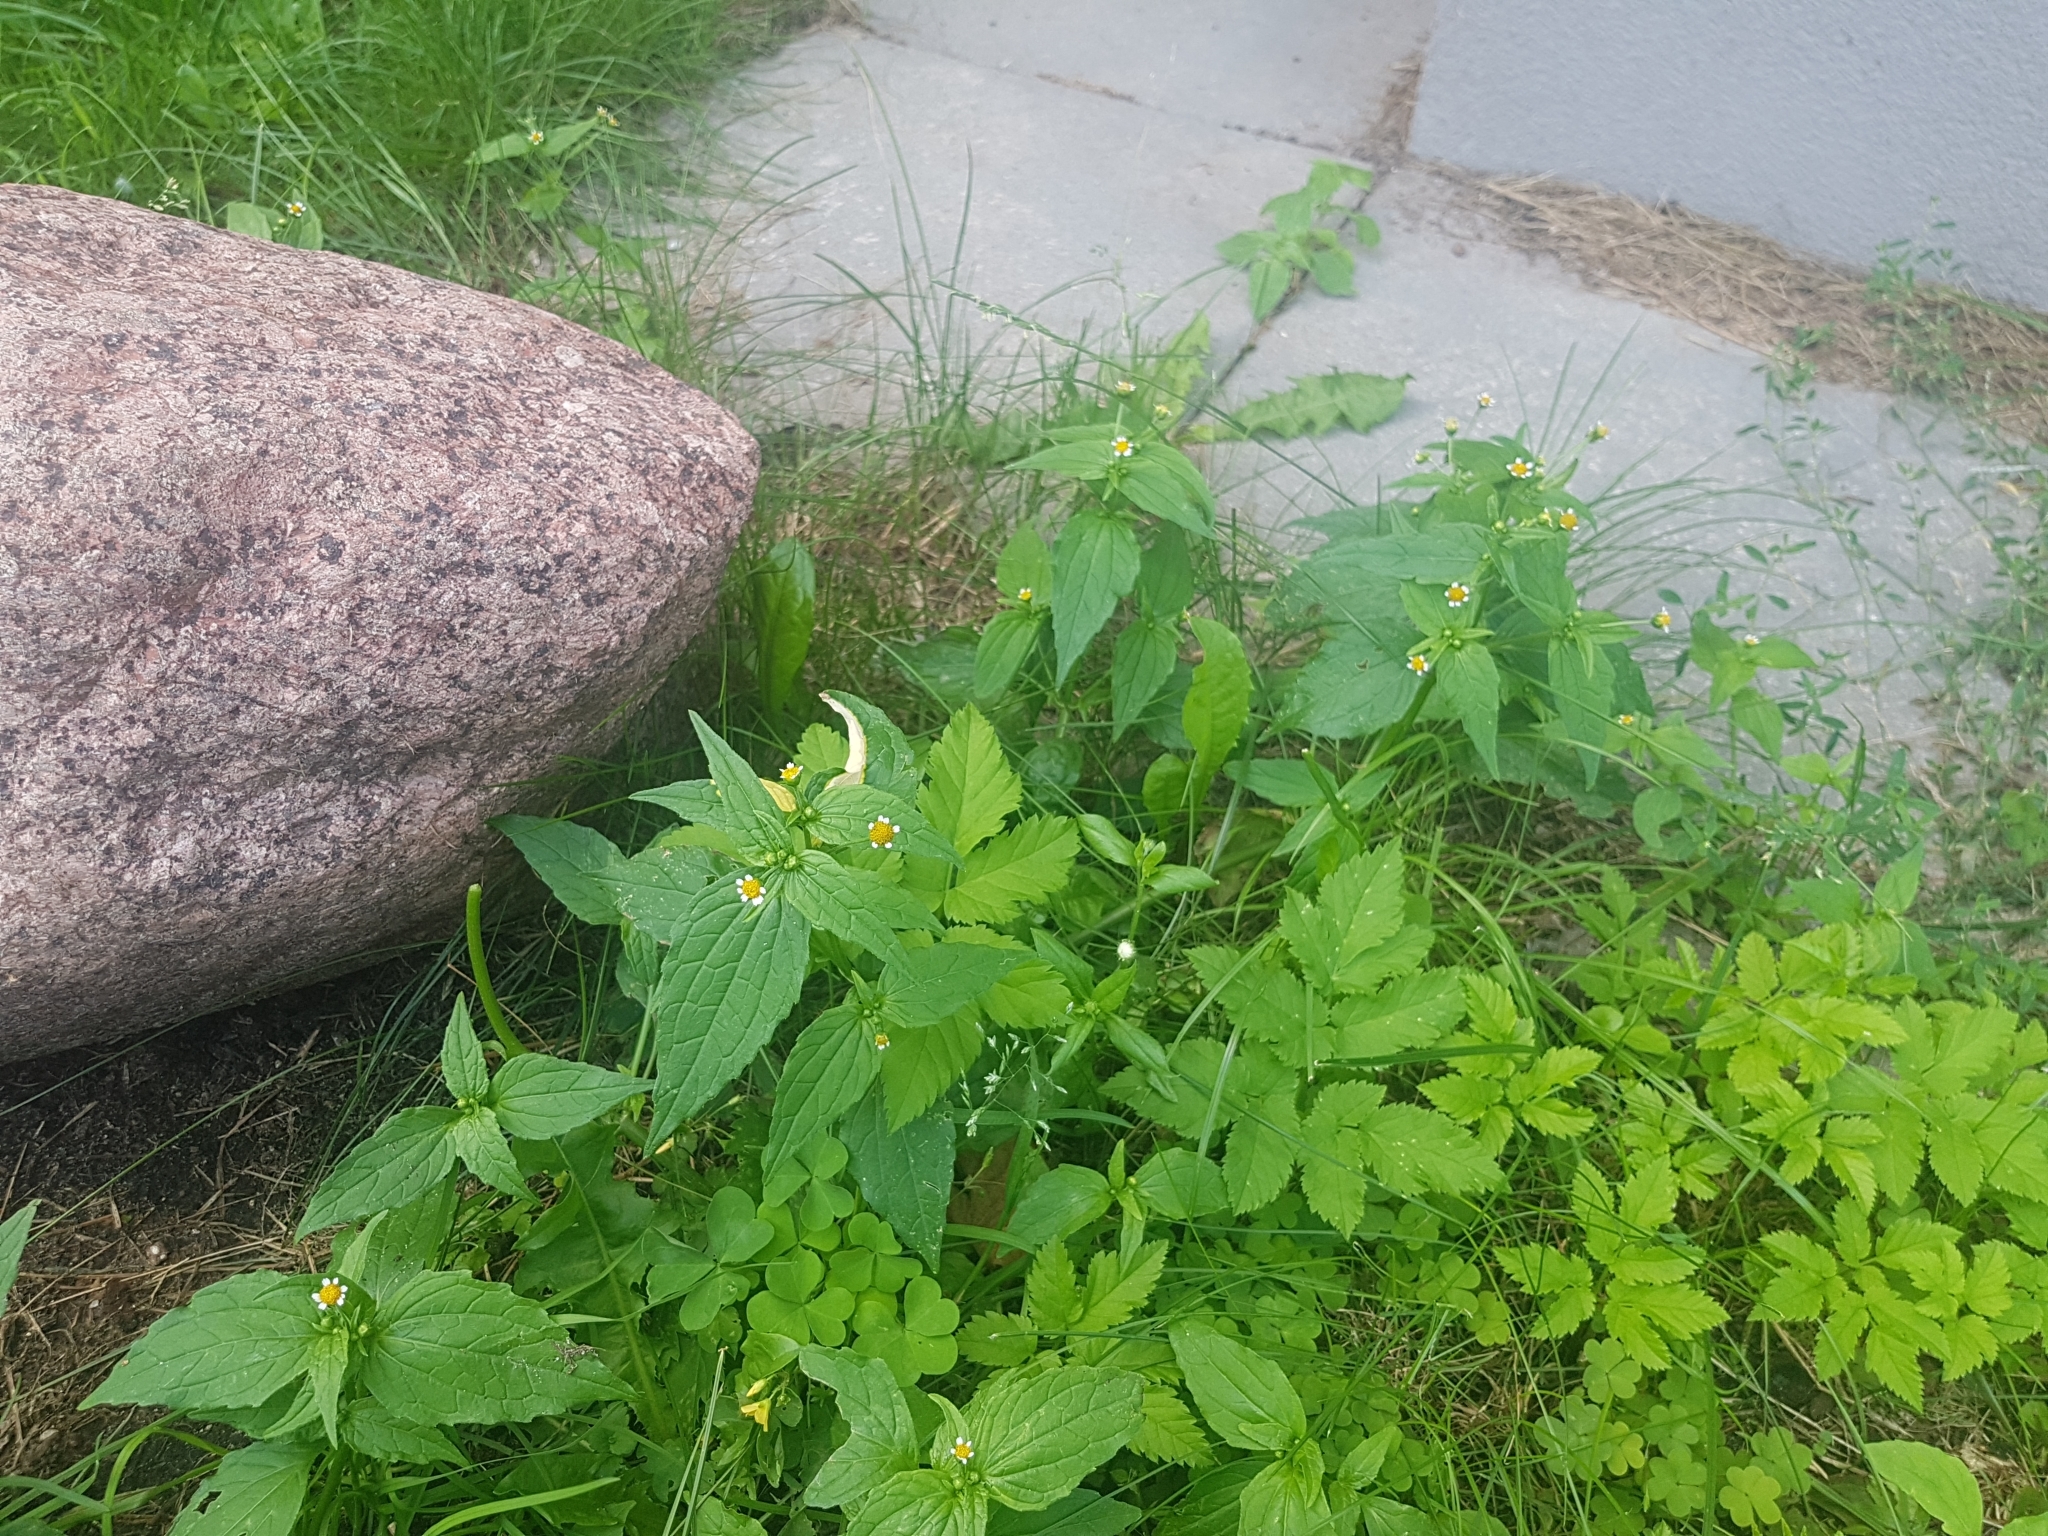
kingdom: Plantae
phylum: Tracheophyta
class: Magnoliopsida
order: Asterales
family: Asteraceae
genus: Galinsoga
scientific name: Galinsoga parviflora
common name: Gallant soldier
